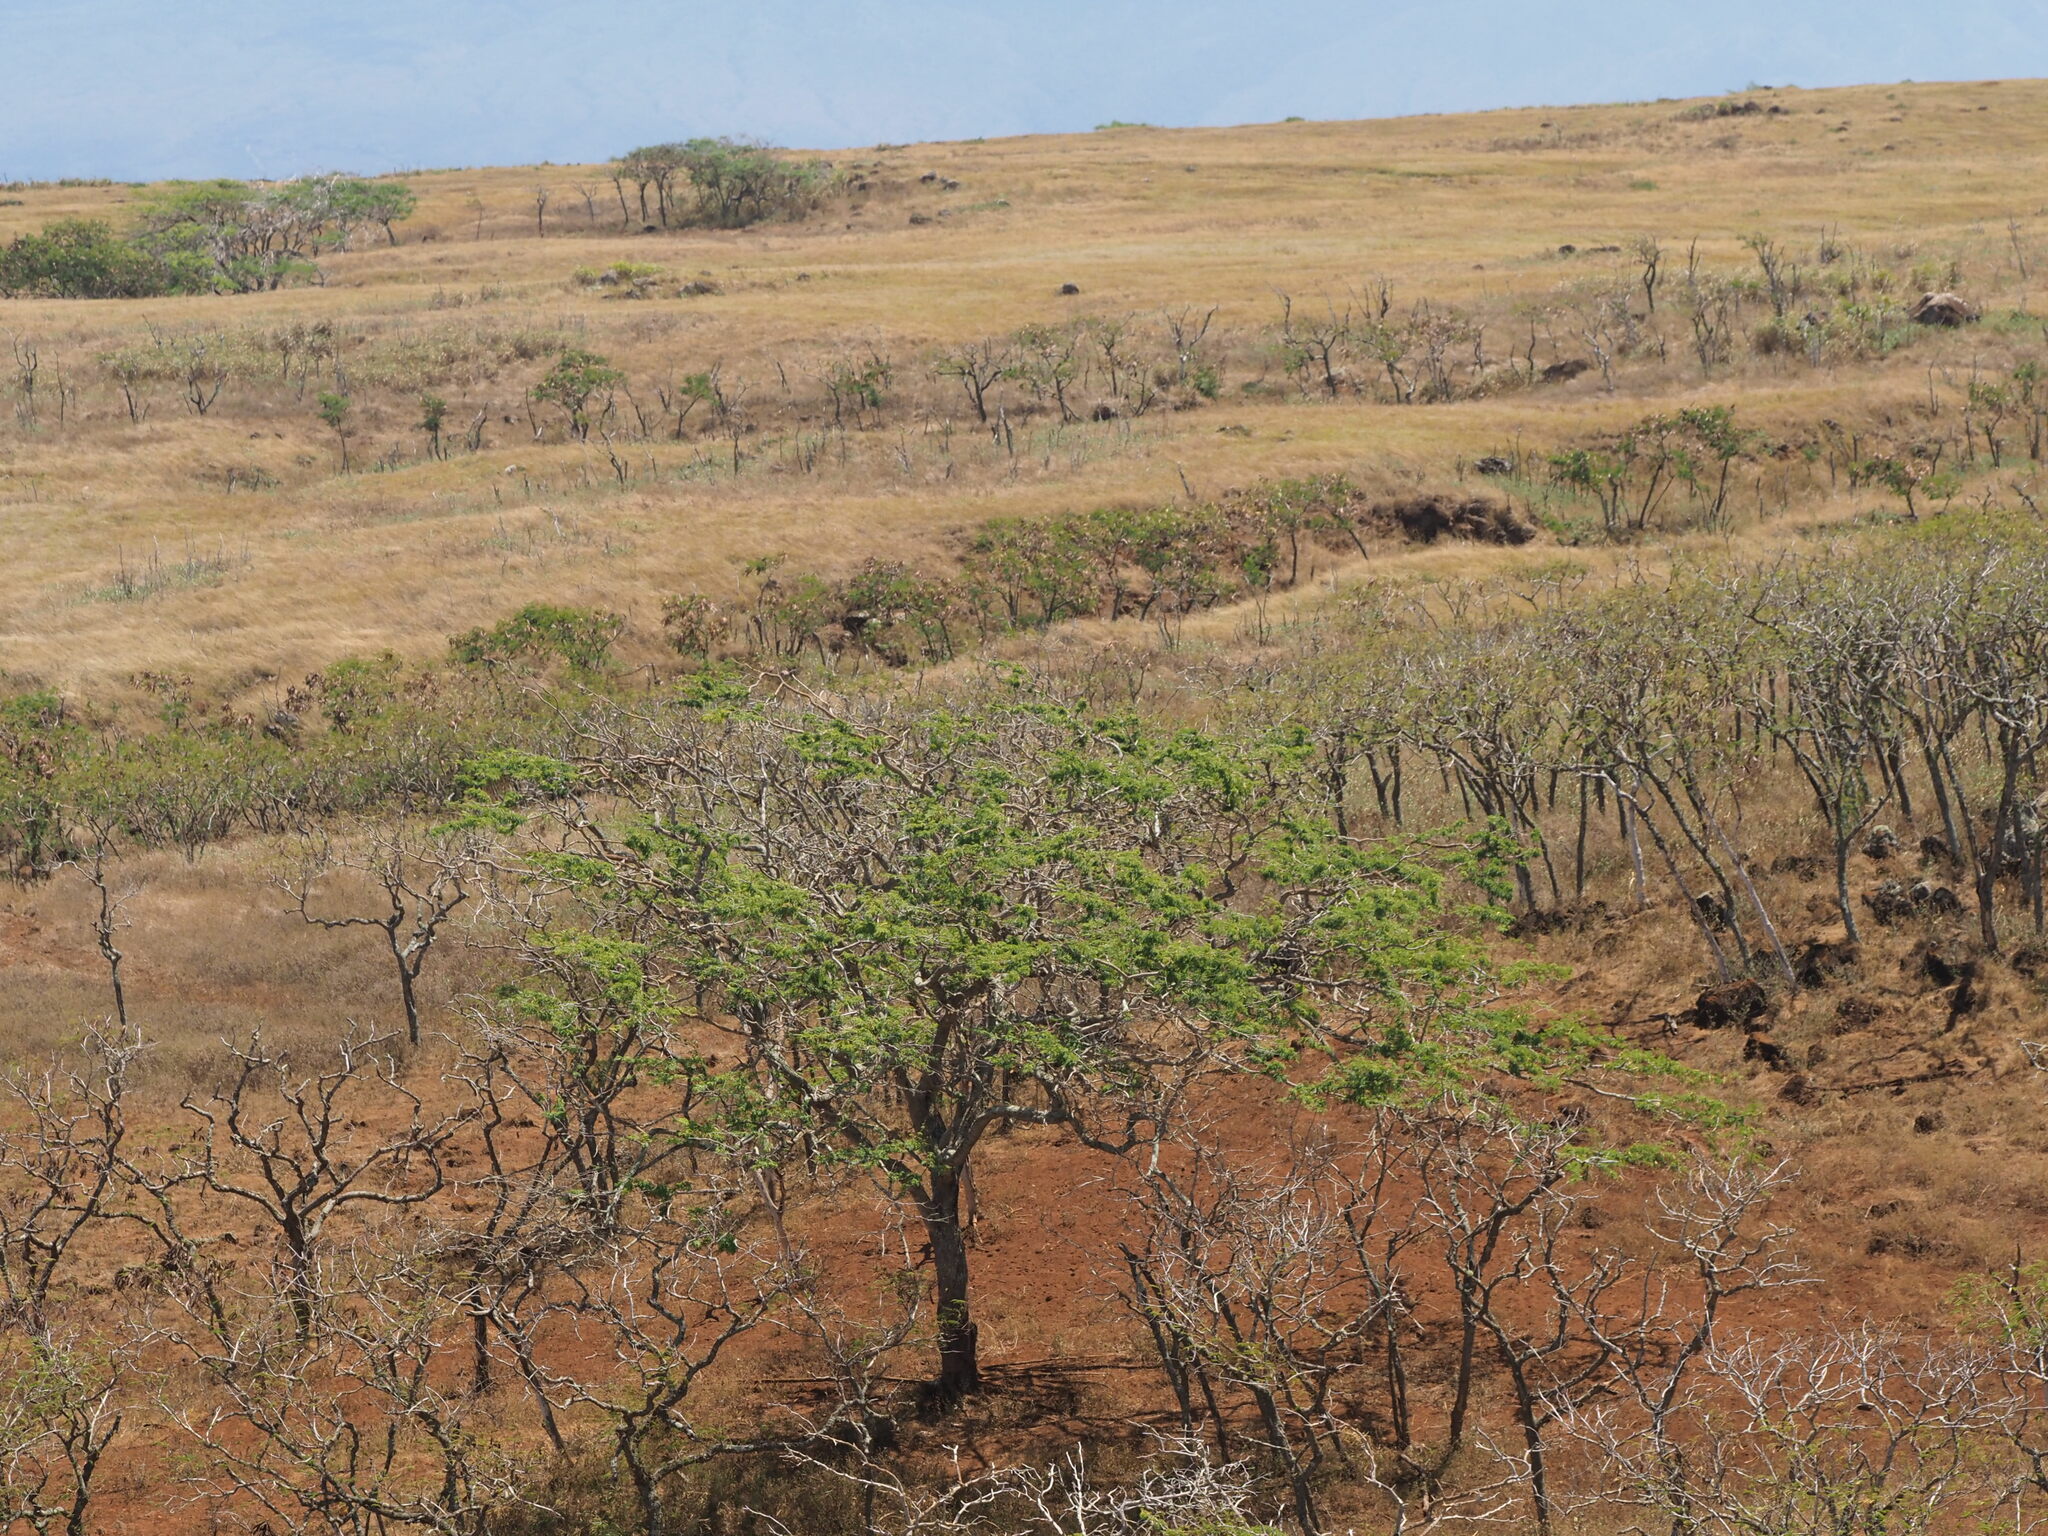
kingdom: Plantae
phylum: Tracheophyta
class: Magnoliopsida
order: Fabales
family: Fabaceae
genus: Prosopis
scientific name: Prosopis pallida
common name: Mesquite
